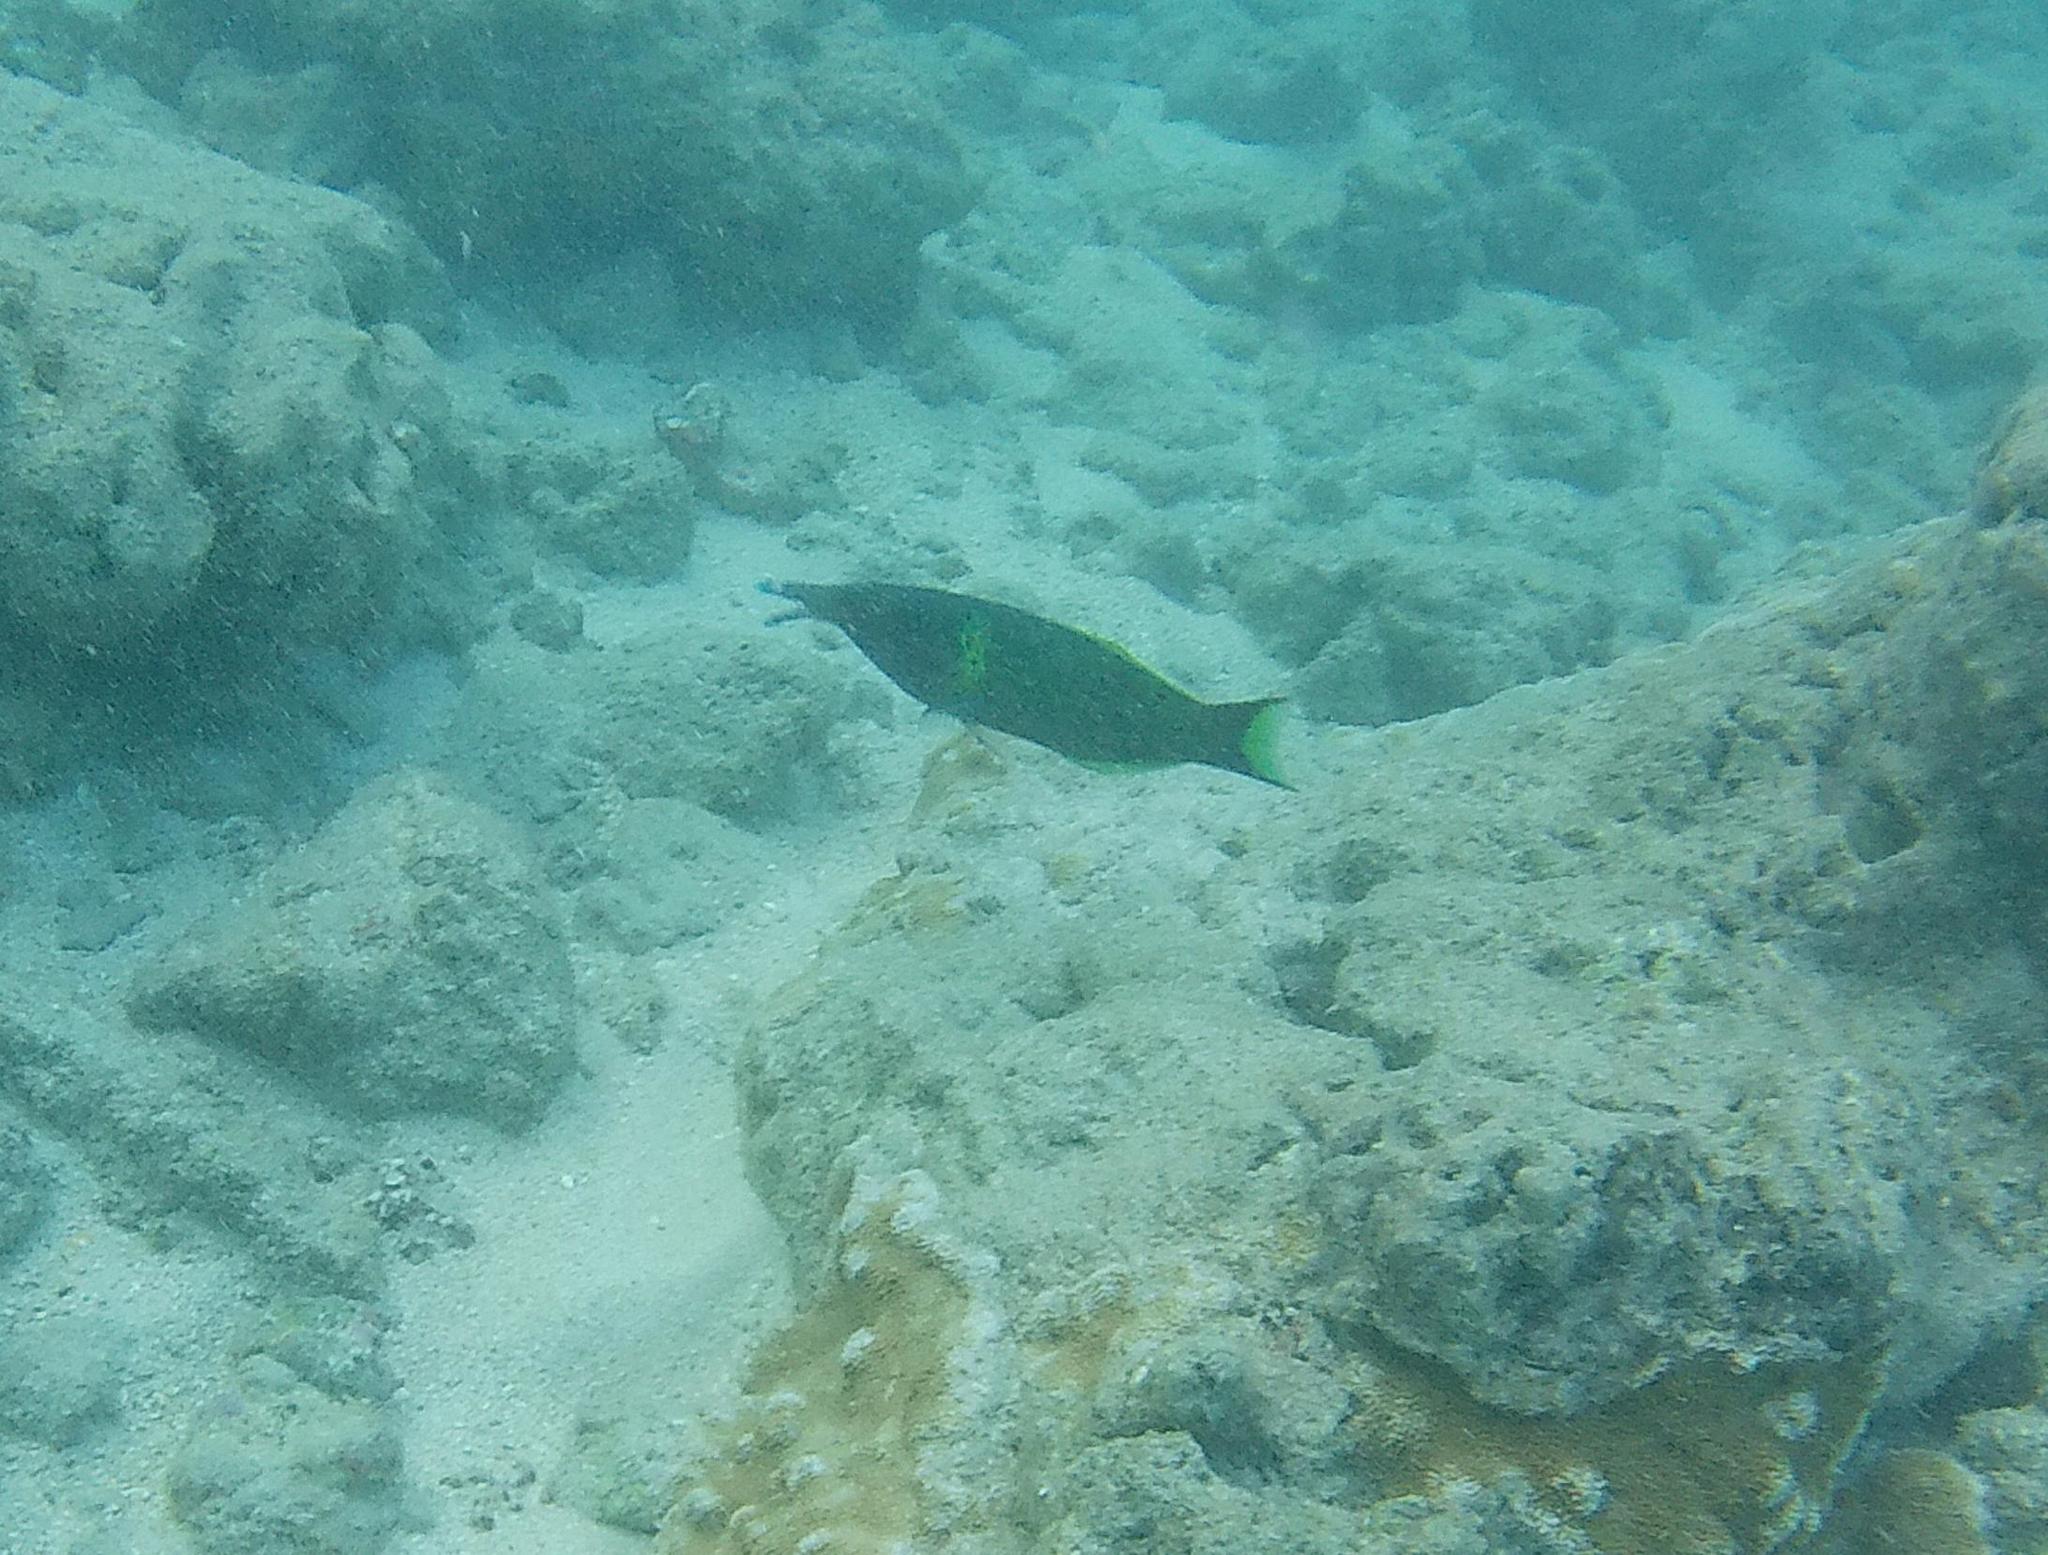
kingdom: Animalia
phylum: Chordata
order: Perciformes
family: Labridae
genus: Gomphosus
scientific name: Gomphosus varius
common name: Bird wrasse
